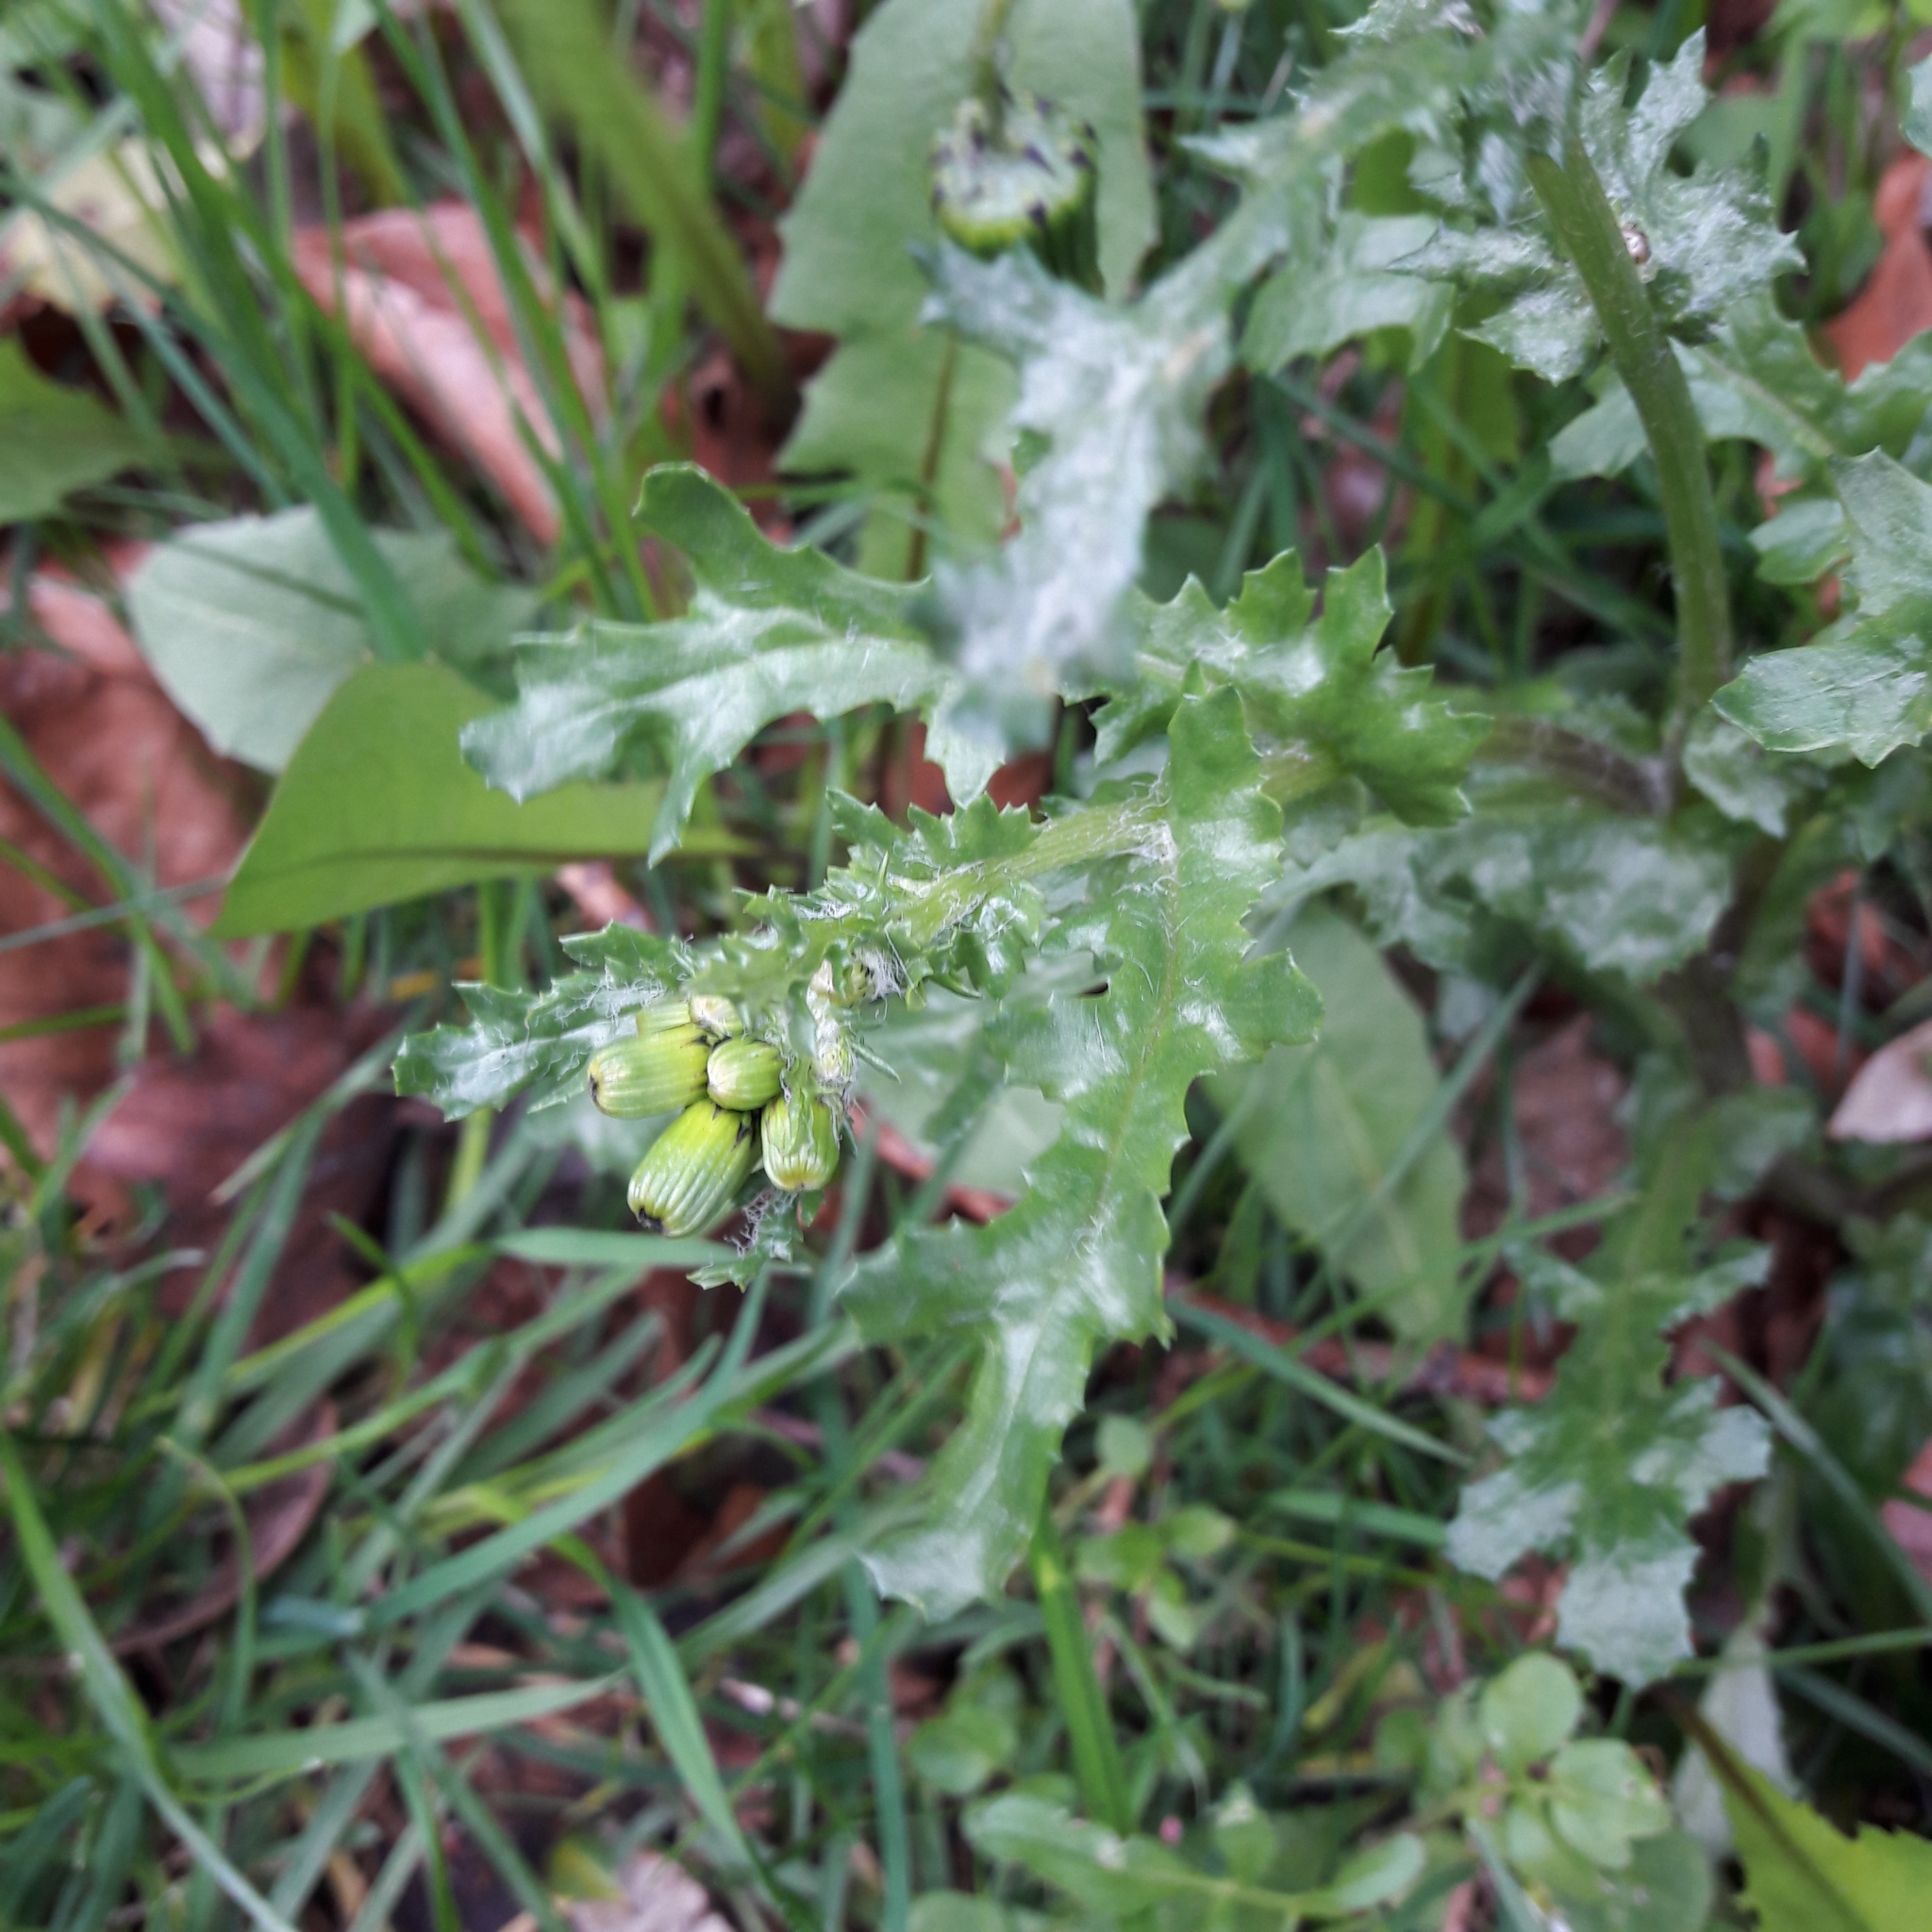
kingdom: Plantae
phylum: Tracheophyta
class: Magnoliopsida
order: Asterales
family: Asteraceae
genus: Senecio
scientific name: Senecio vulgaris
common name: Old-man-in-the-spring
